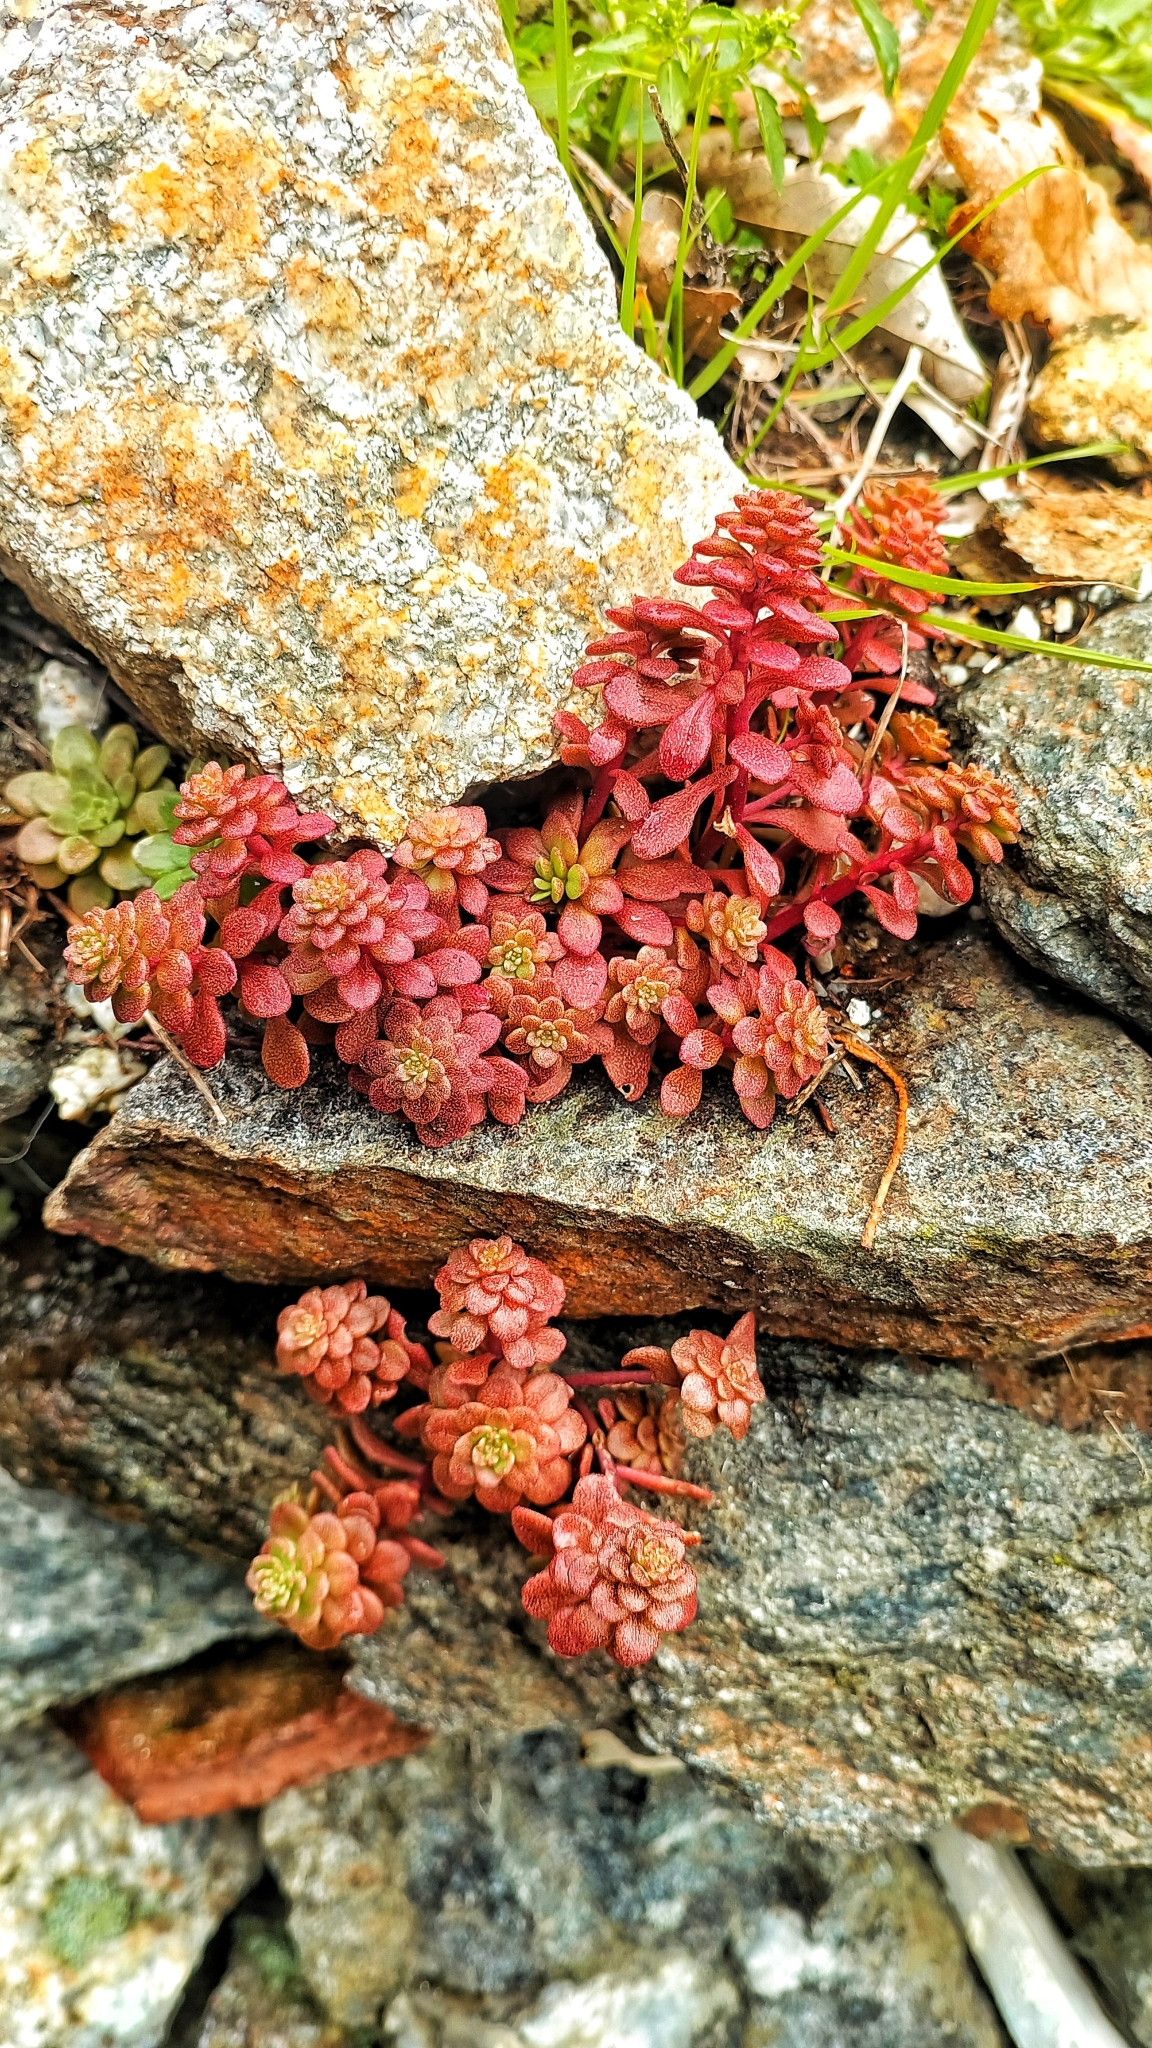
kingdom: Plantae
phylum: Tracheophyta
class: Magnoliopsida
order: Saxifragales
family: Crassulaceae
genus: Sedum
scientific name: Sedum cepaea
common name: Pink stonecrop
